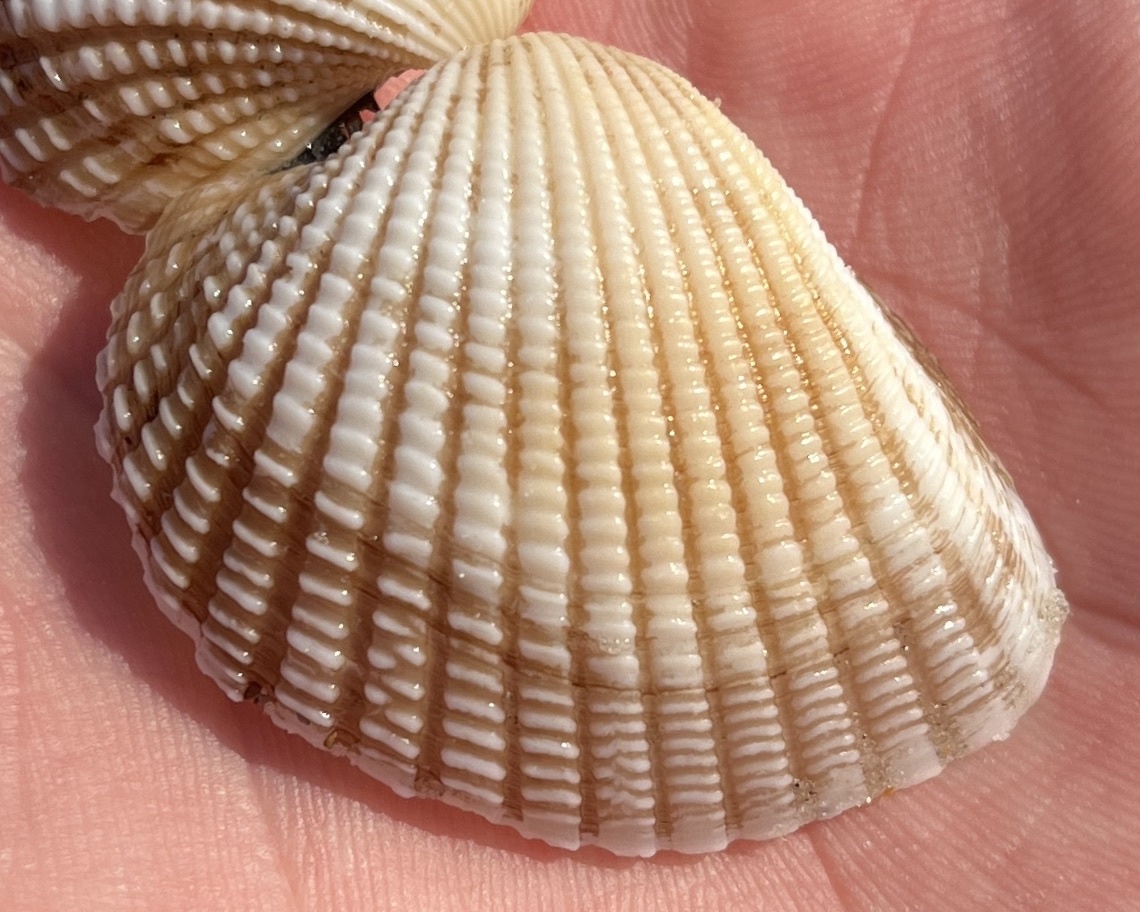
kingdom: Animalia
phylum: Mollusca
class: Bivalvia
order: Arcida
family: Arcidae
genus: Anadara
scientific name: Anadara brasiliana
